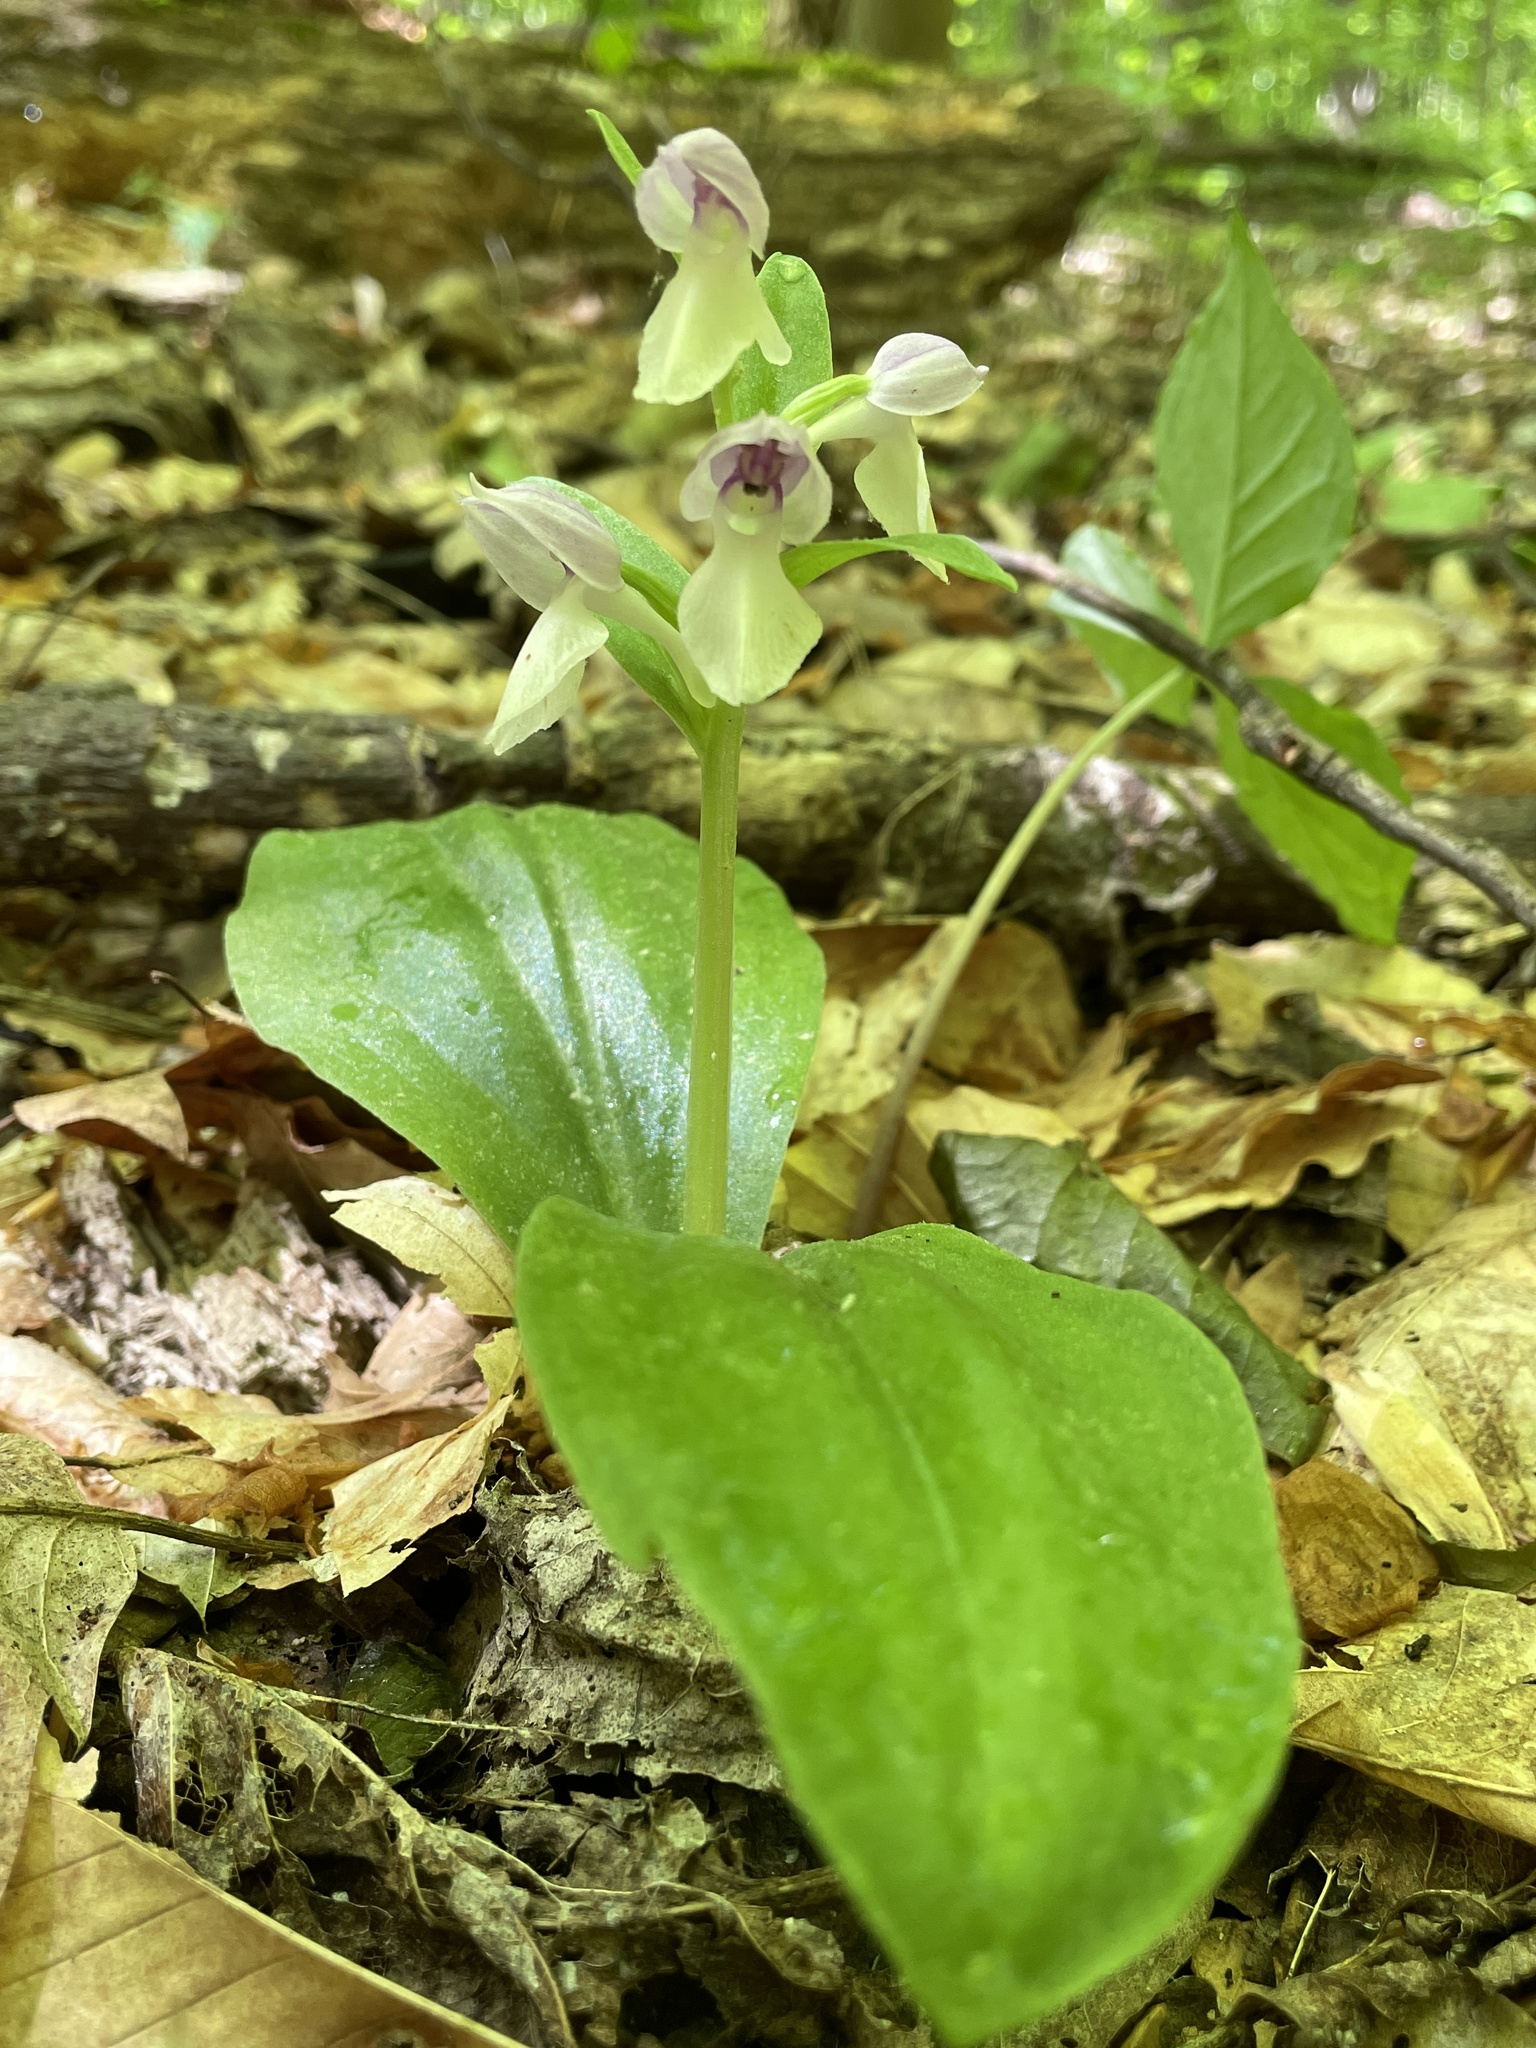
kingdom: Plantae
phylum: Tracheophyta
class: Liliopsida
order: Asparagales
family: Orchidaceae
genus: Galearis
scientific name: Galearis spectabilis
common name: Purple-hooded orchis
